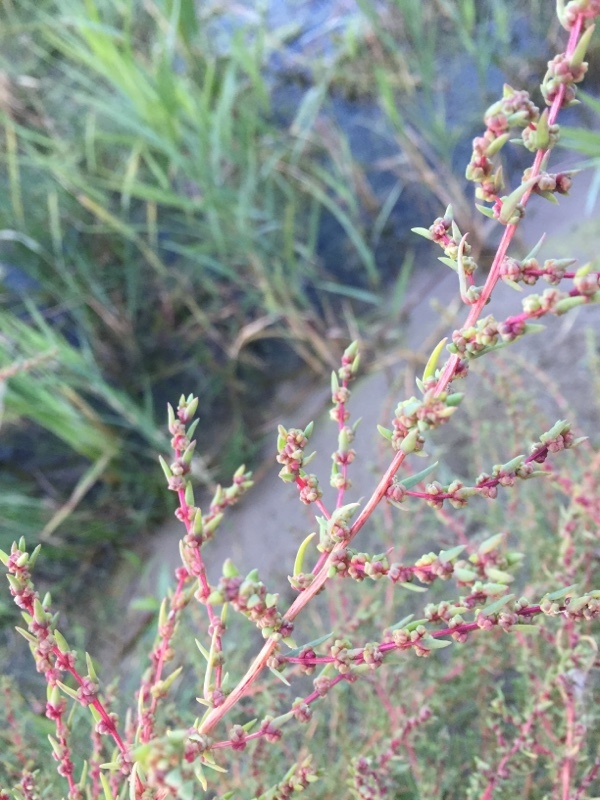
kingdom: Plantae
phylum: Tracheophyta
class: Magnoliopsida
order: Caryophyllales
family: Amaranthaceae
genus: Suaeda
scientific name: Suaeda maritima
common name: Annual sea-blite
